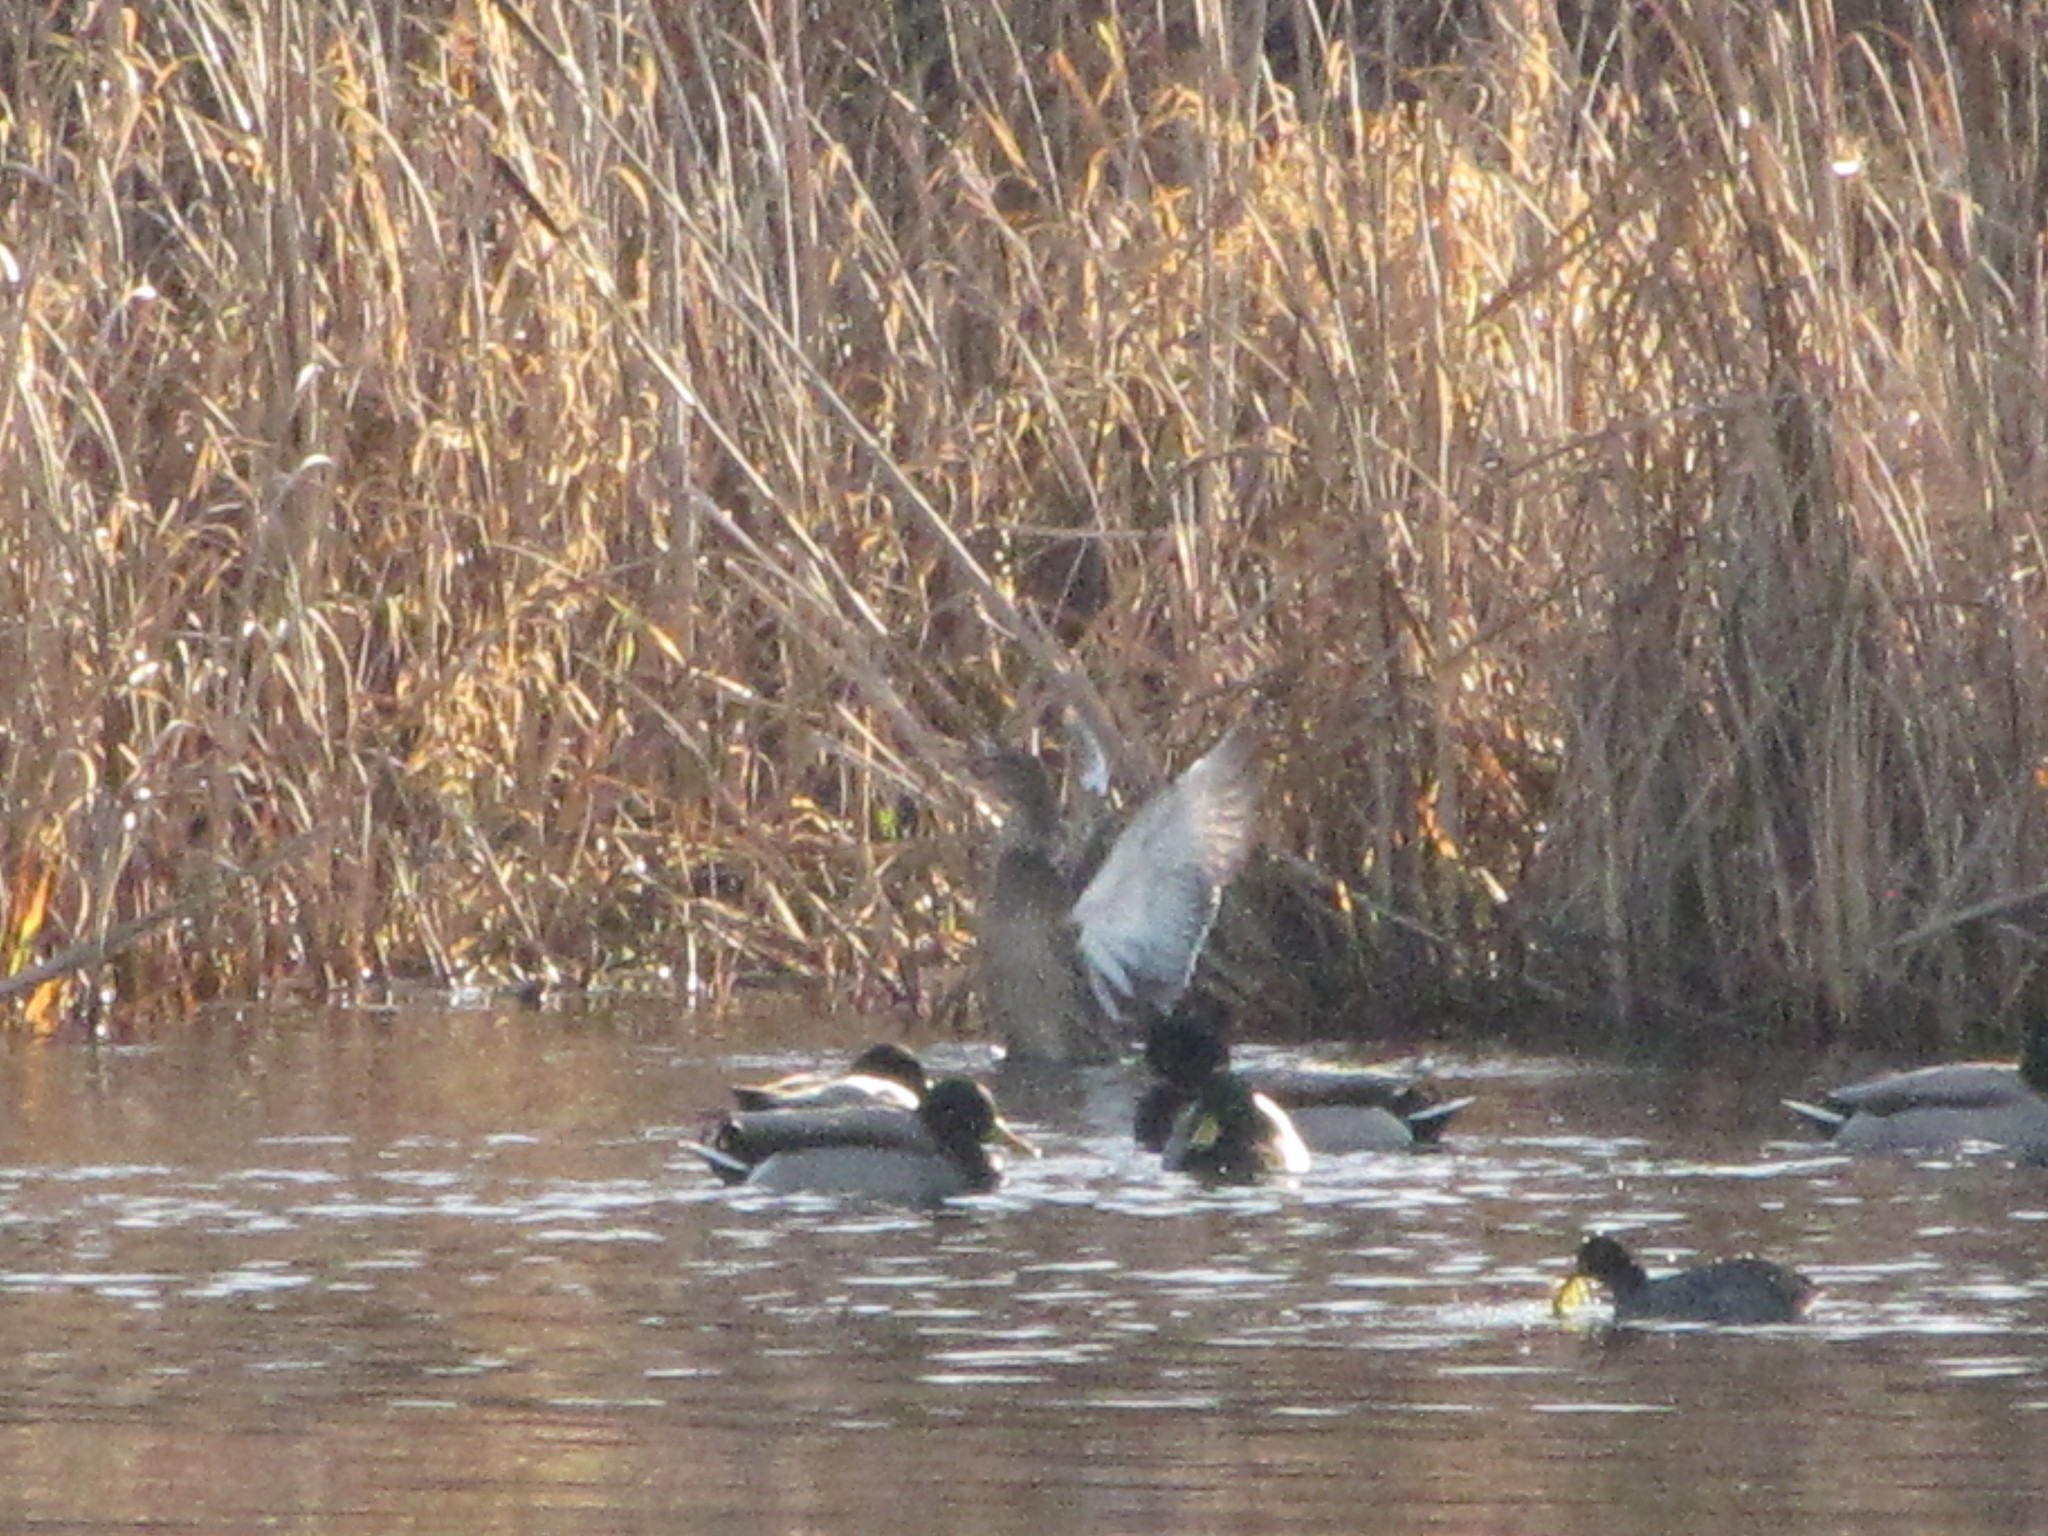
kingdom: Animalia
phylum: Chordata
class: Aves
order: Anseriformes
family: Anatidae
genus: Anas
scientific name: Anas platyrhynchos
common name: Mallard
